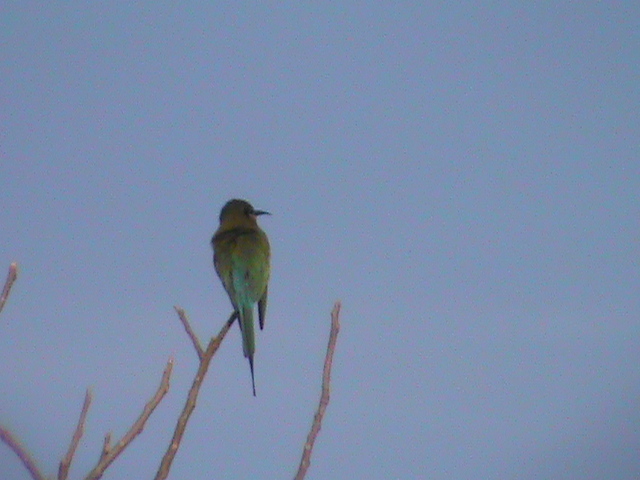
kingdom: Animalia
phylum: Chordata
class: Aves
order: Coraciiformes
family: Meropidae
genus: Merops
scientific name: Merops philippinus
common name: Blue-tailed bee-eater
